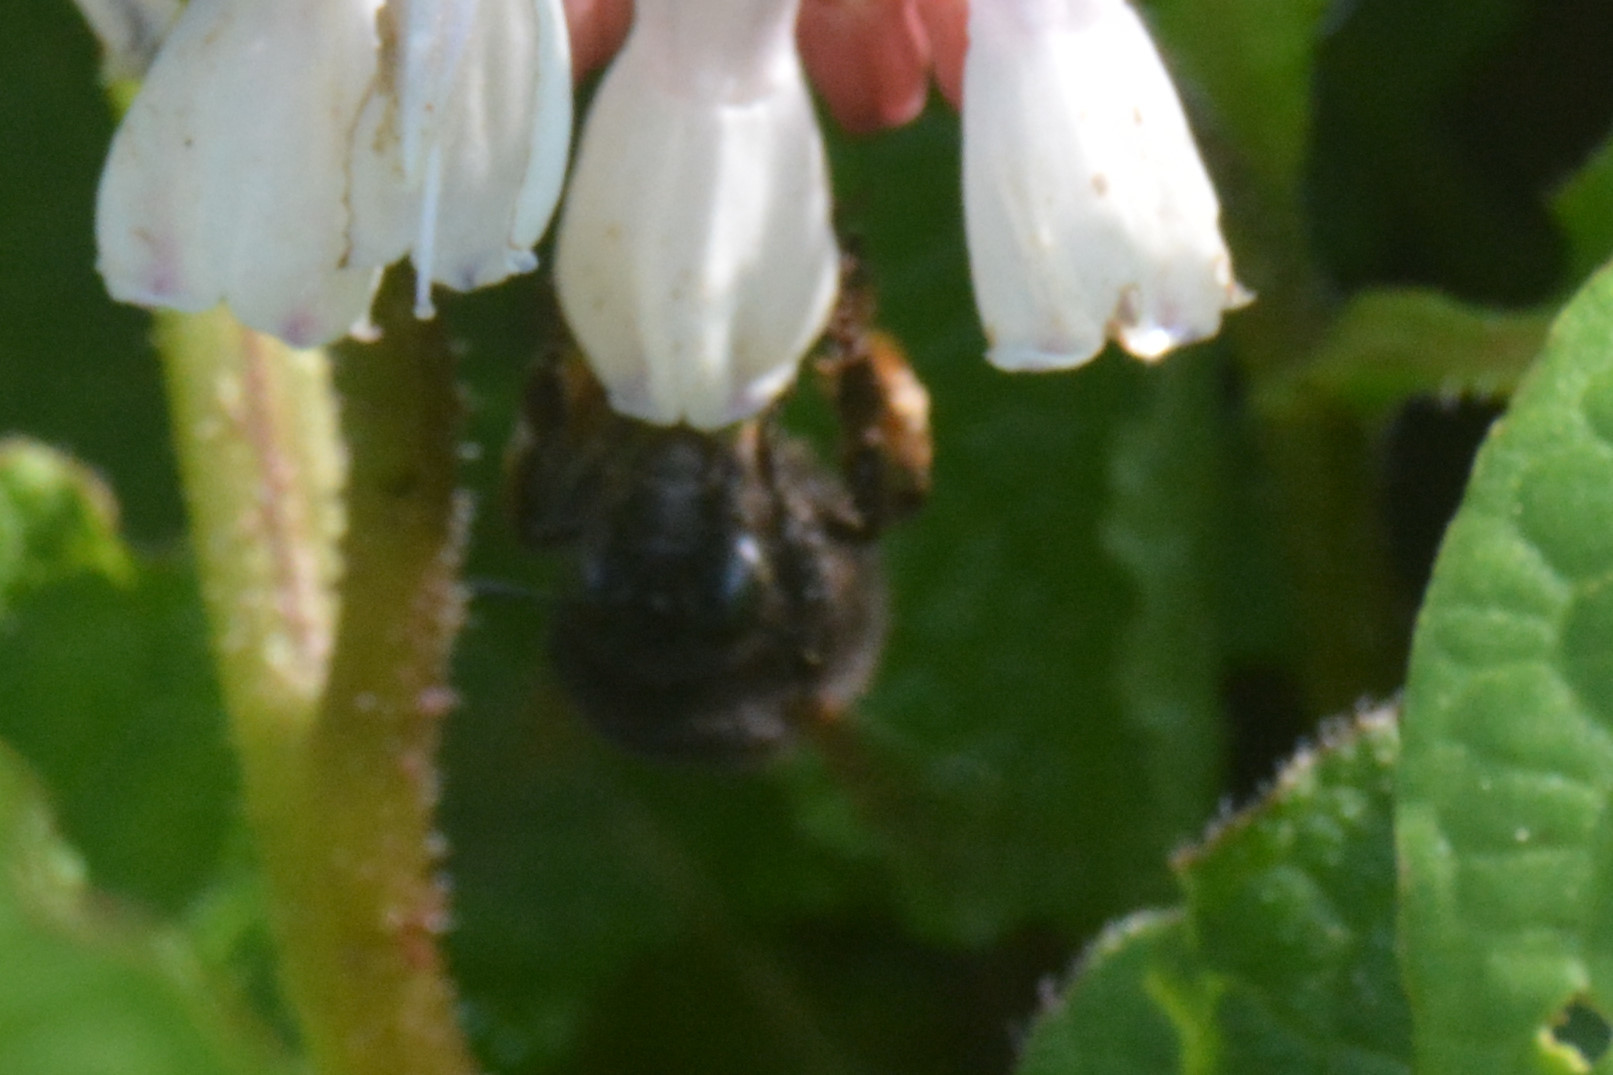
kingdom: Animalia
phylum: Arthropoda
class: Insecta
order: Hymenoptera
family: Apidae
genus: Anthophora
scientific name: Anthophora plumipes
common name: Hairy-footed flower bee
